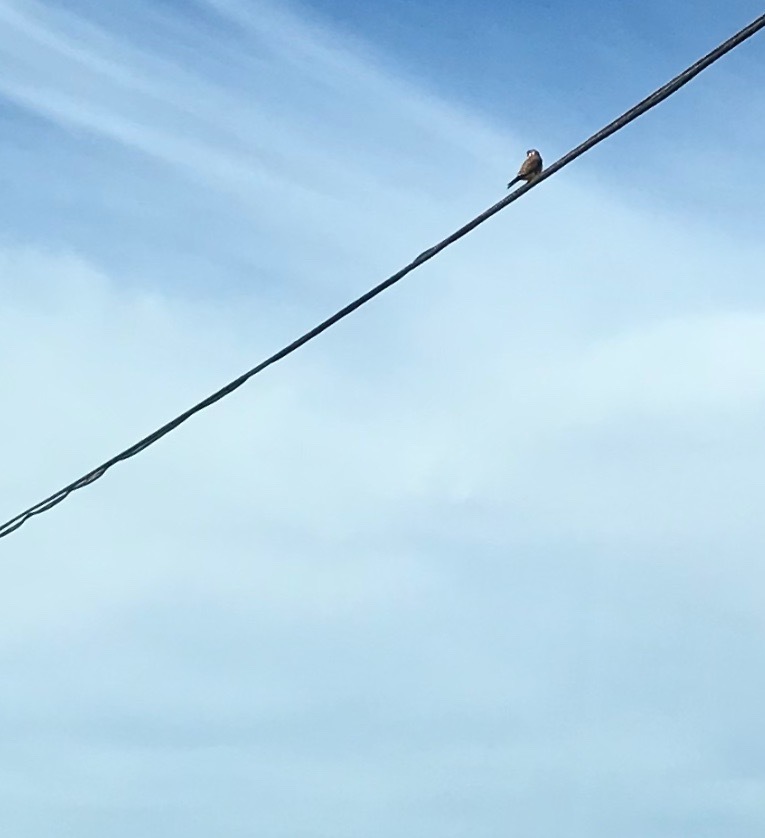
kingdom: Animalia
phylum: Chordata
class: Aves
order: Falconiformes
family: Falconidae
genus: Falco
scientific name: Falco sparverius
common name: American kestrel
